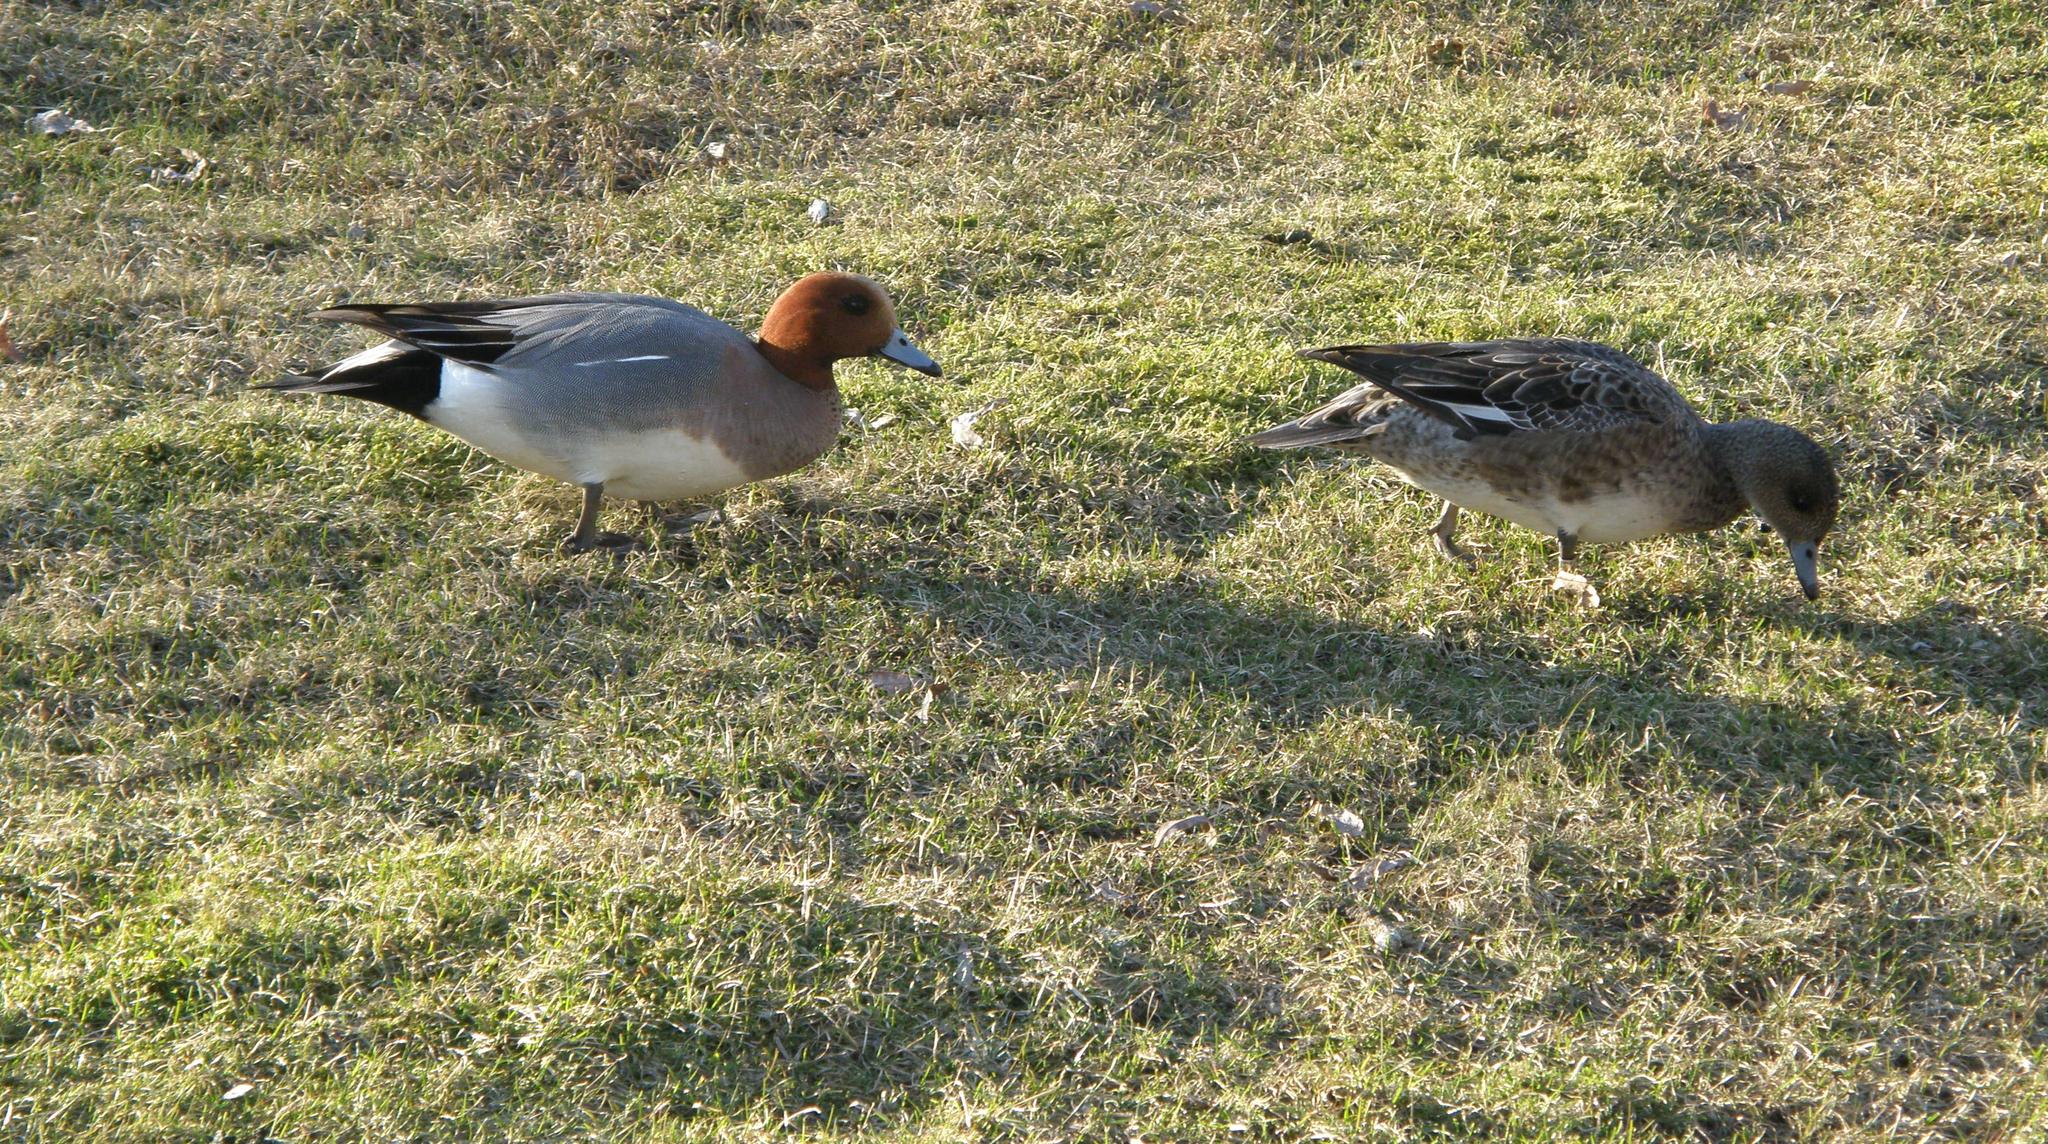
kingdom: Animalia
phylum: Chordata
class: Aves
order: Anseriformes
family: Anatidae
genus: Mareca
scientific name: Mareca penelope
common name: Eurasian wigeon
